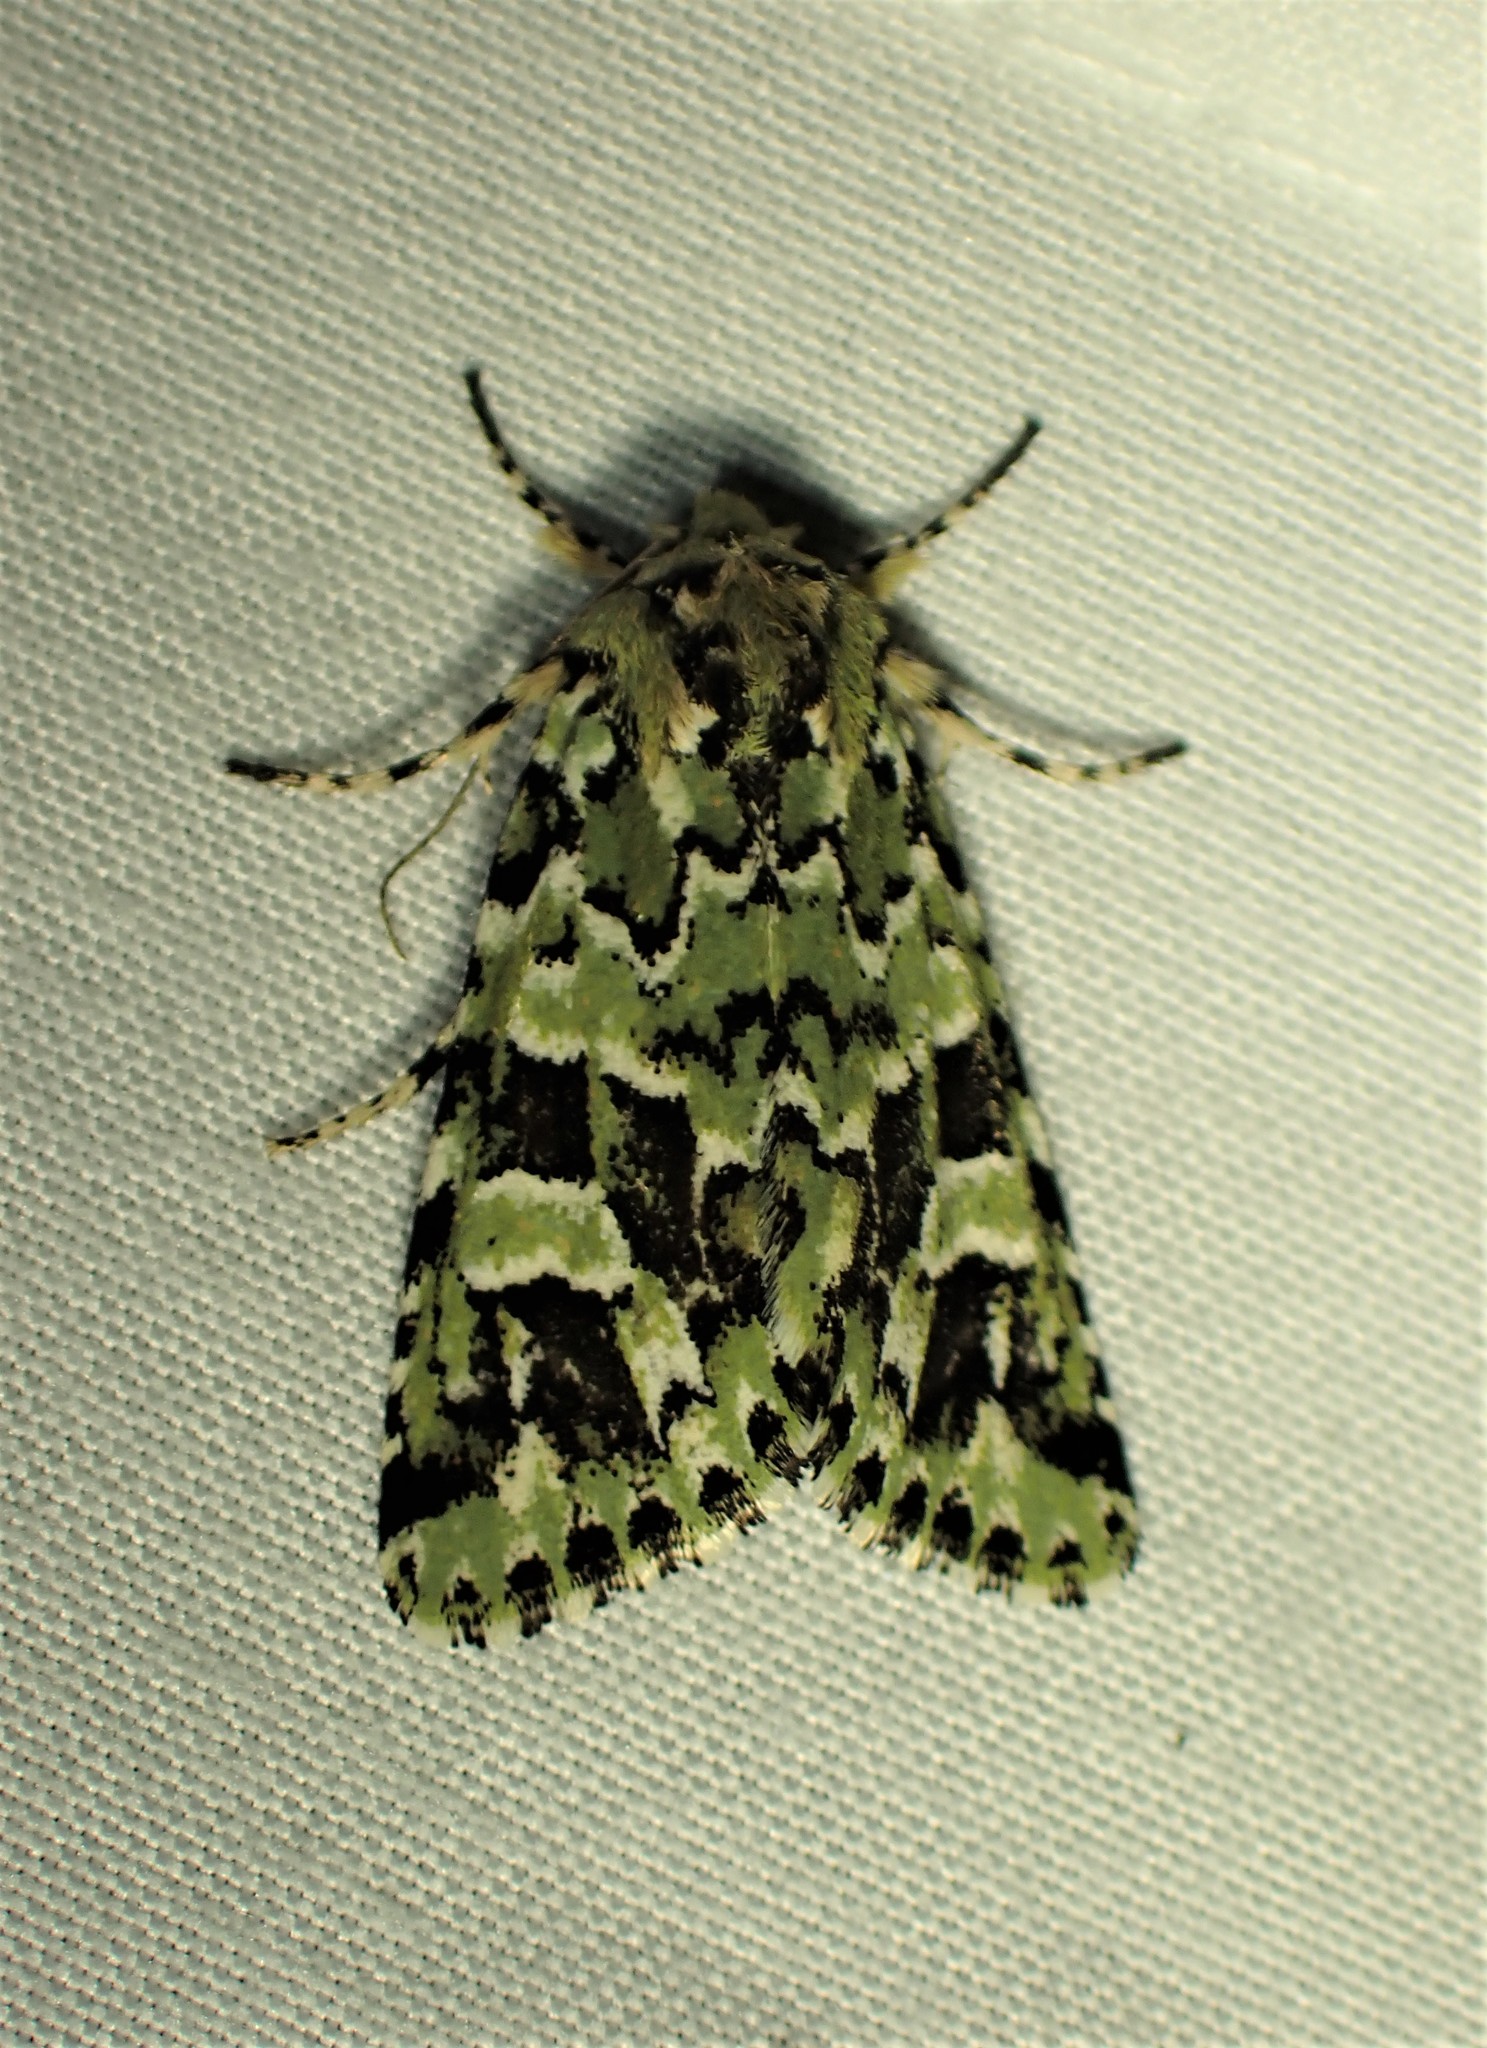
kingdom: Animalia
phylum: Arthropoda
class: Insecta
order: Lepidoptera
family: Noctuidae
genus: Feralia
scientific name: Feralia comstocki
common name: Comstock's sallow
